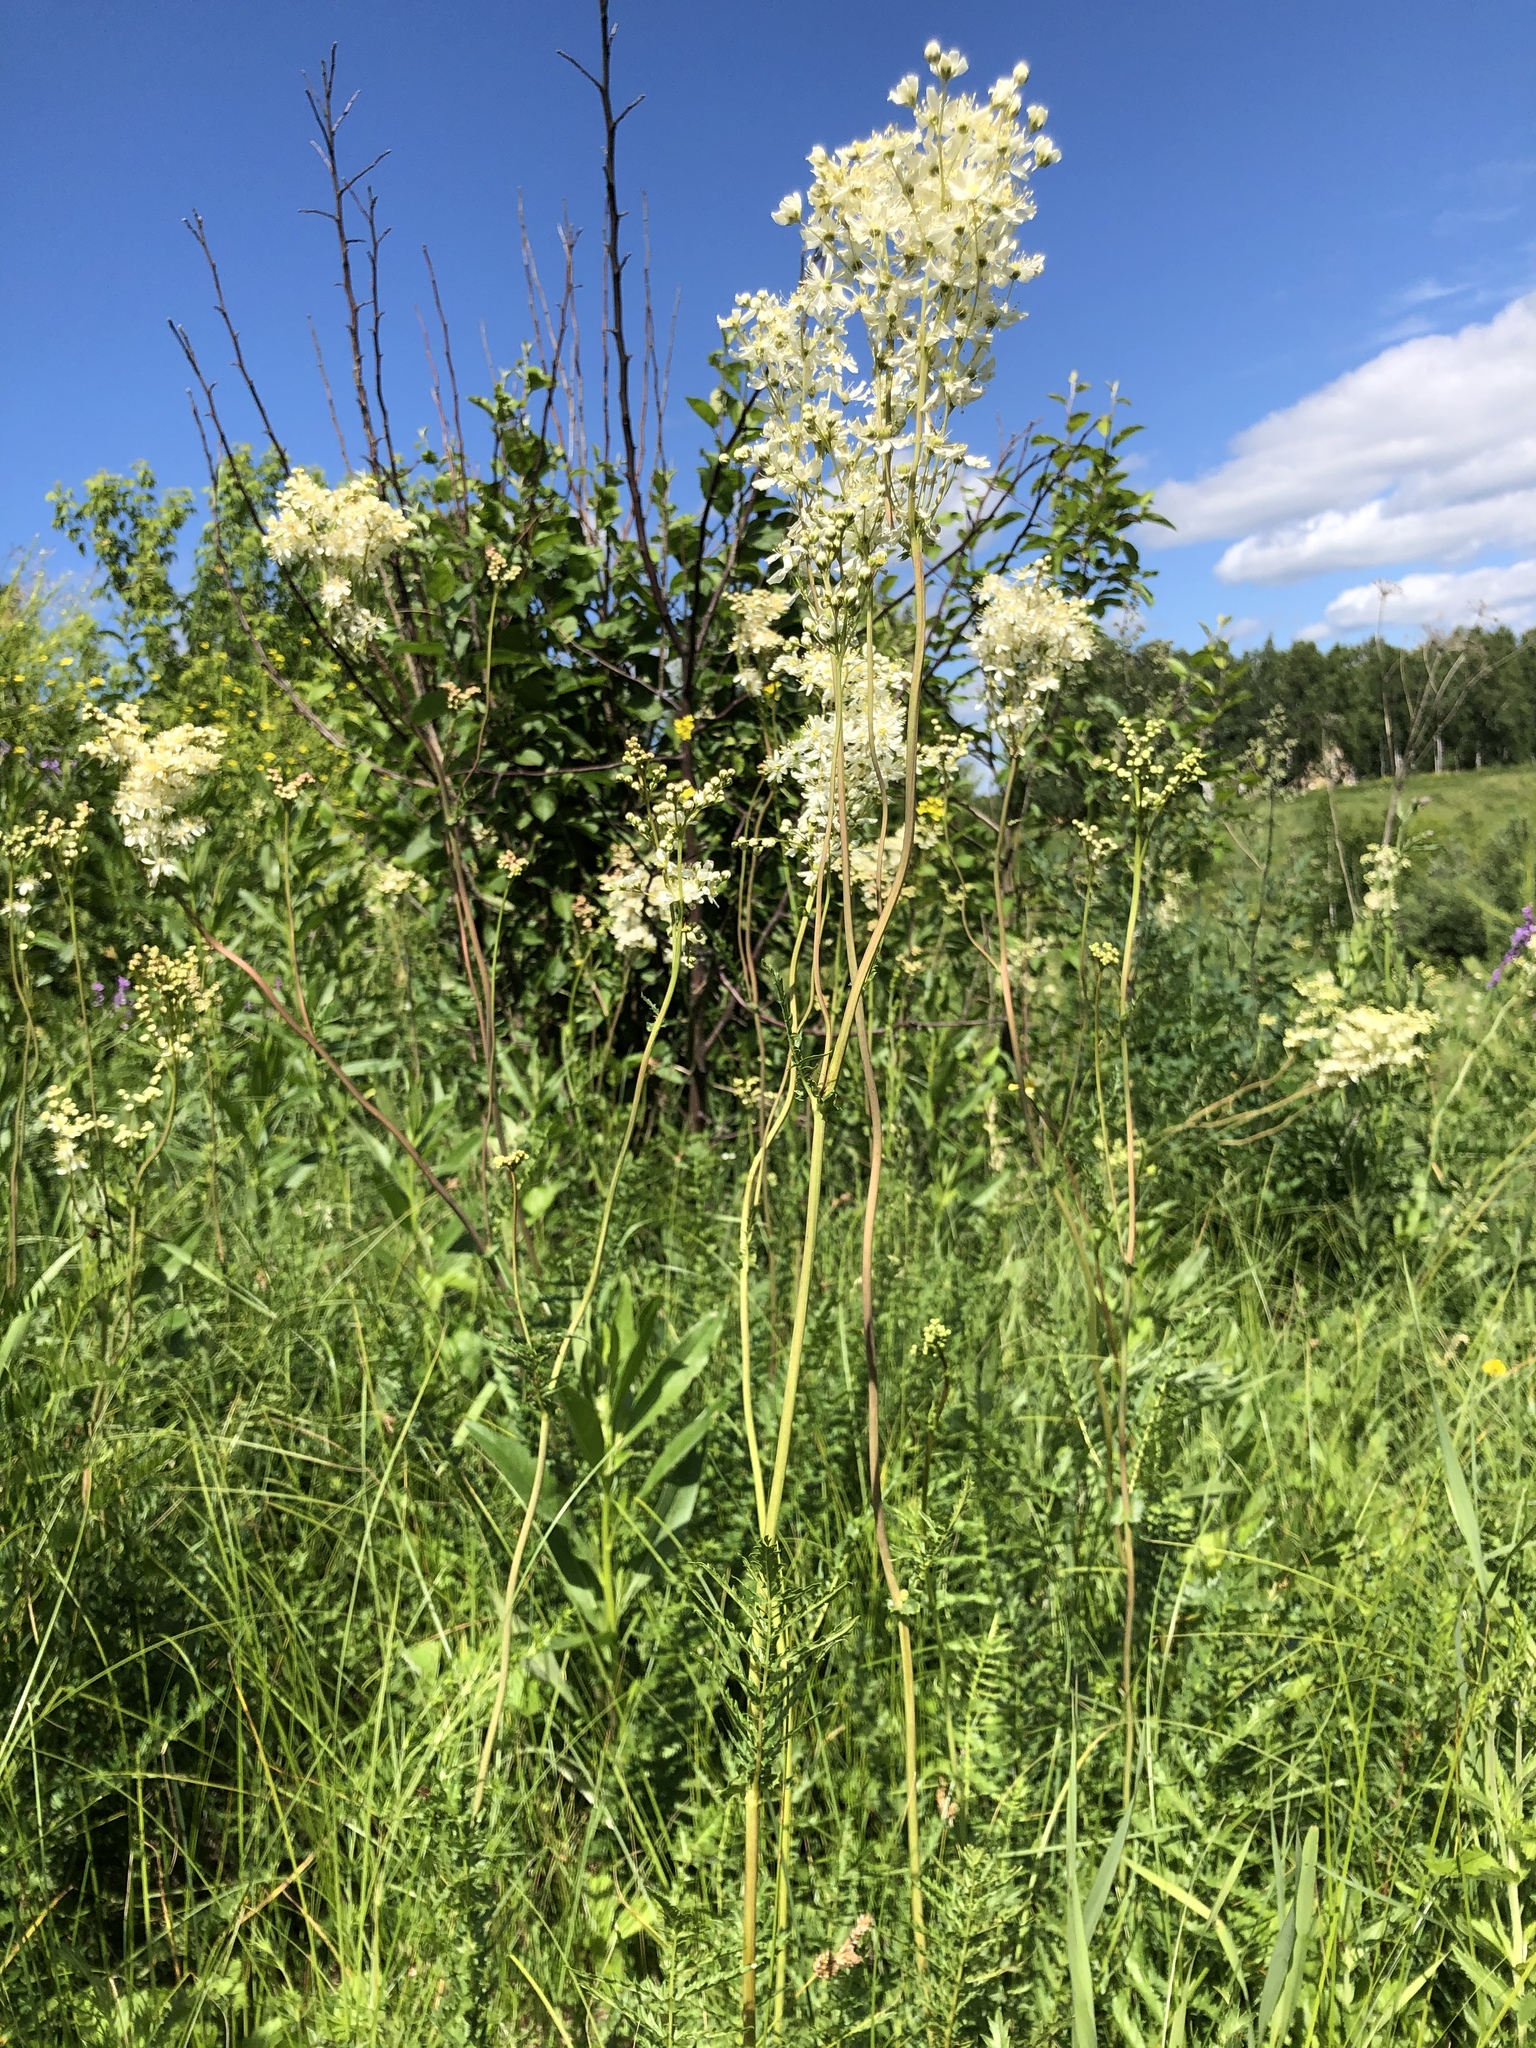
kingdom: Plantae
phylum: Tracheophyta
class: Magnoliopsida
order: Rosales
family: Rosaceae
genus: Filipendula
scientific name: Filipendula vulgaris
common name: Dropwort
